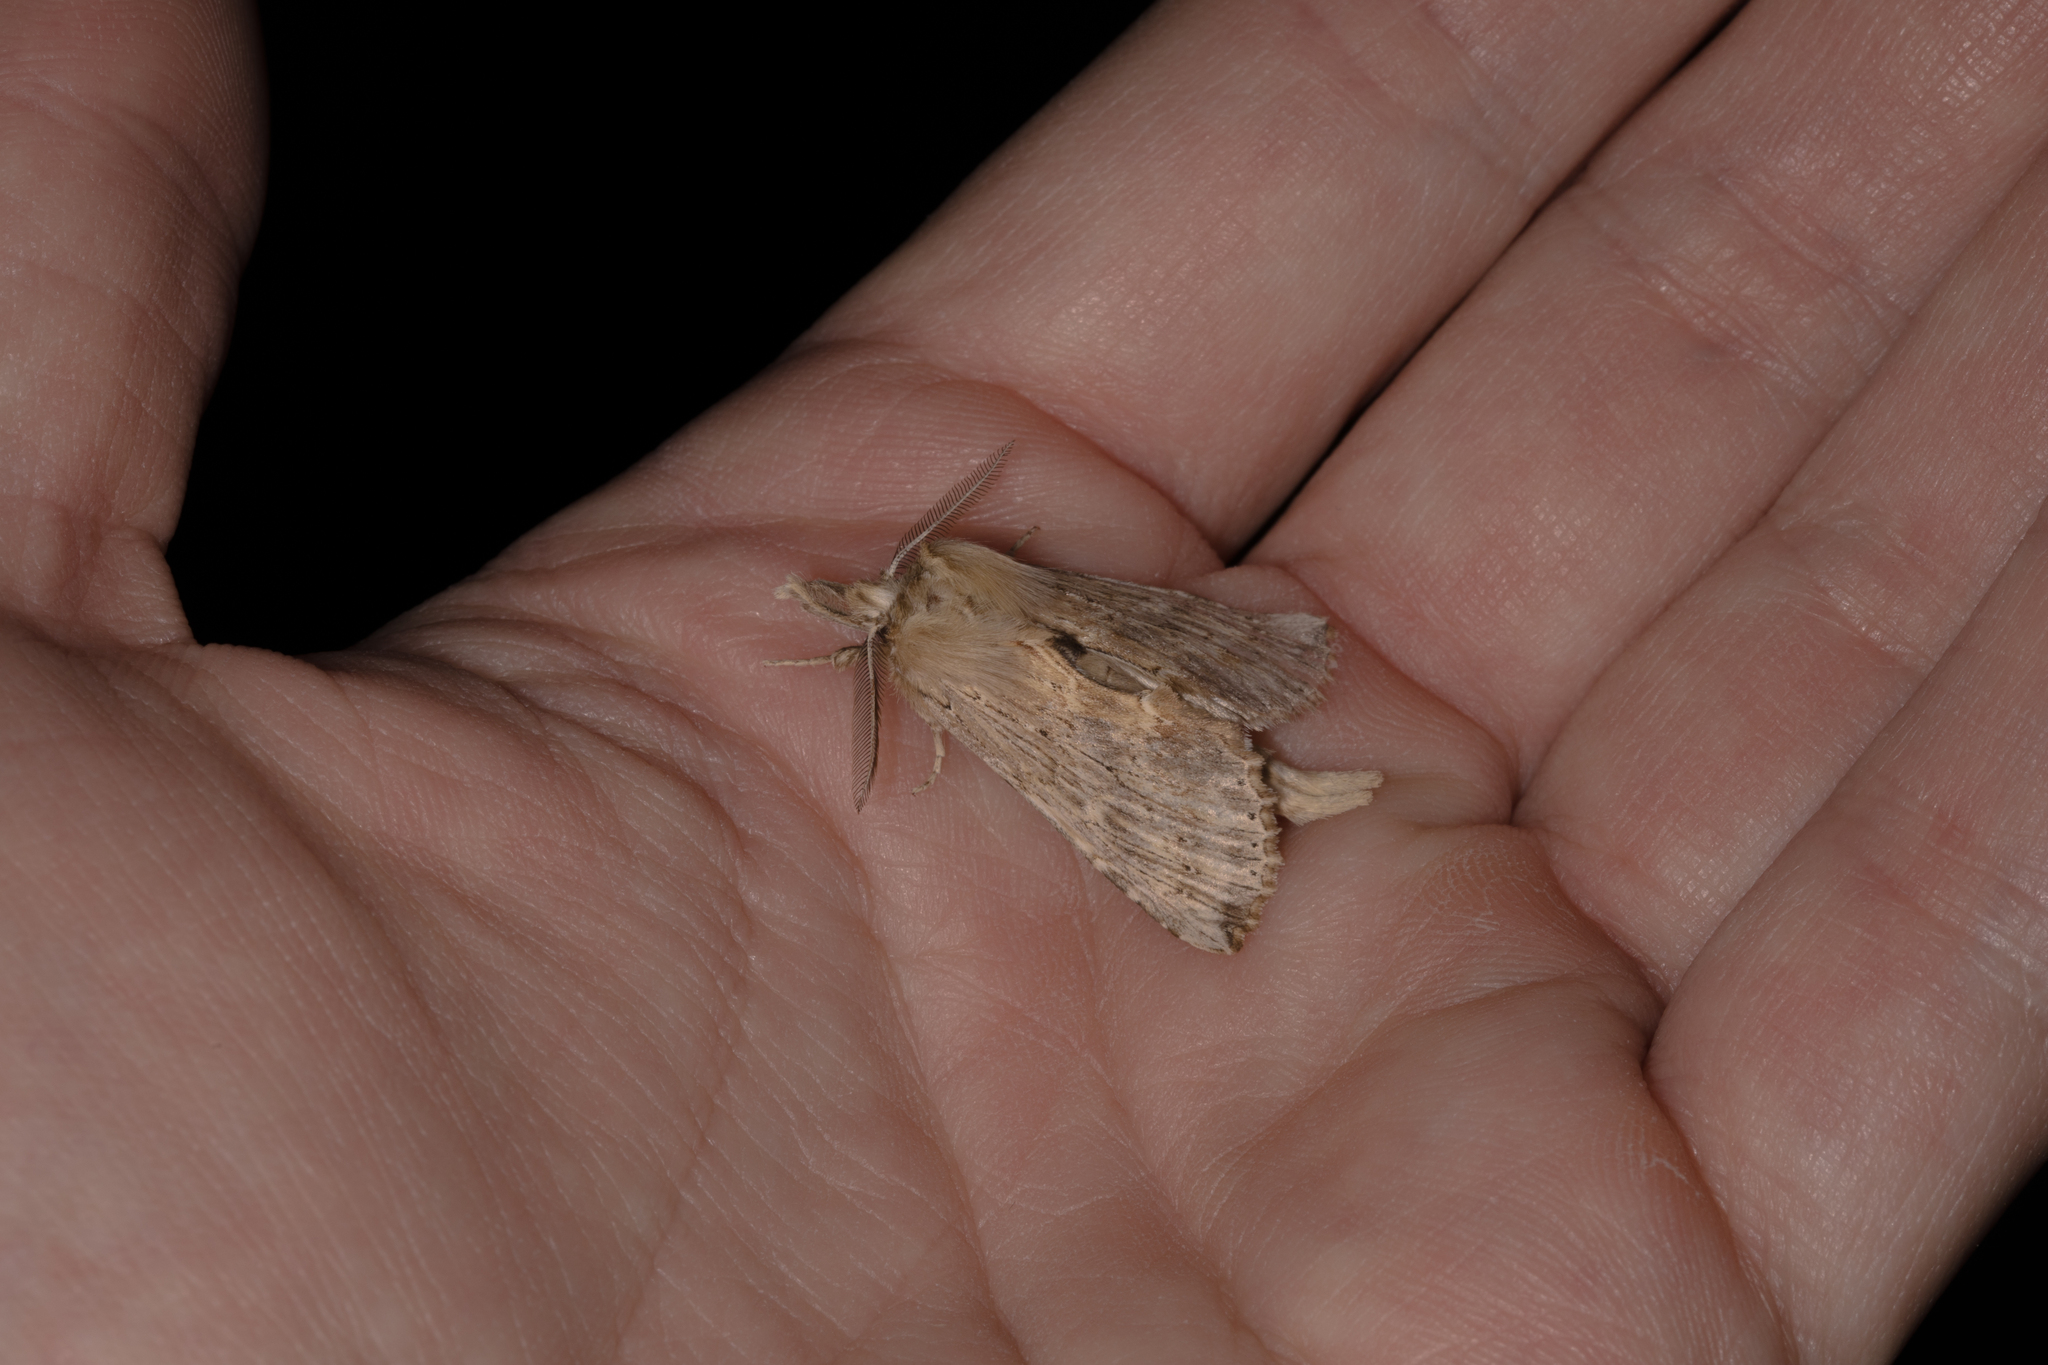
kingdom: Animalia
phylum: Arthropoda
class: Insecta
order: Lepidoptera
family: Notodontidae
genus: Pterostoma
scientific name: Pterostoma palpina
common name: Pale prominent
